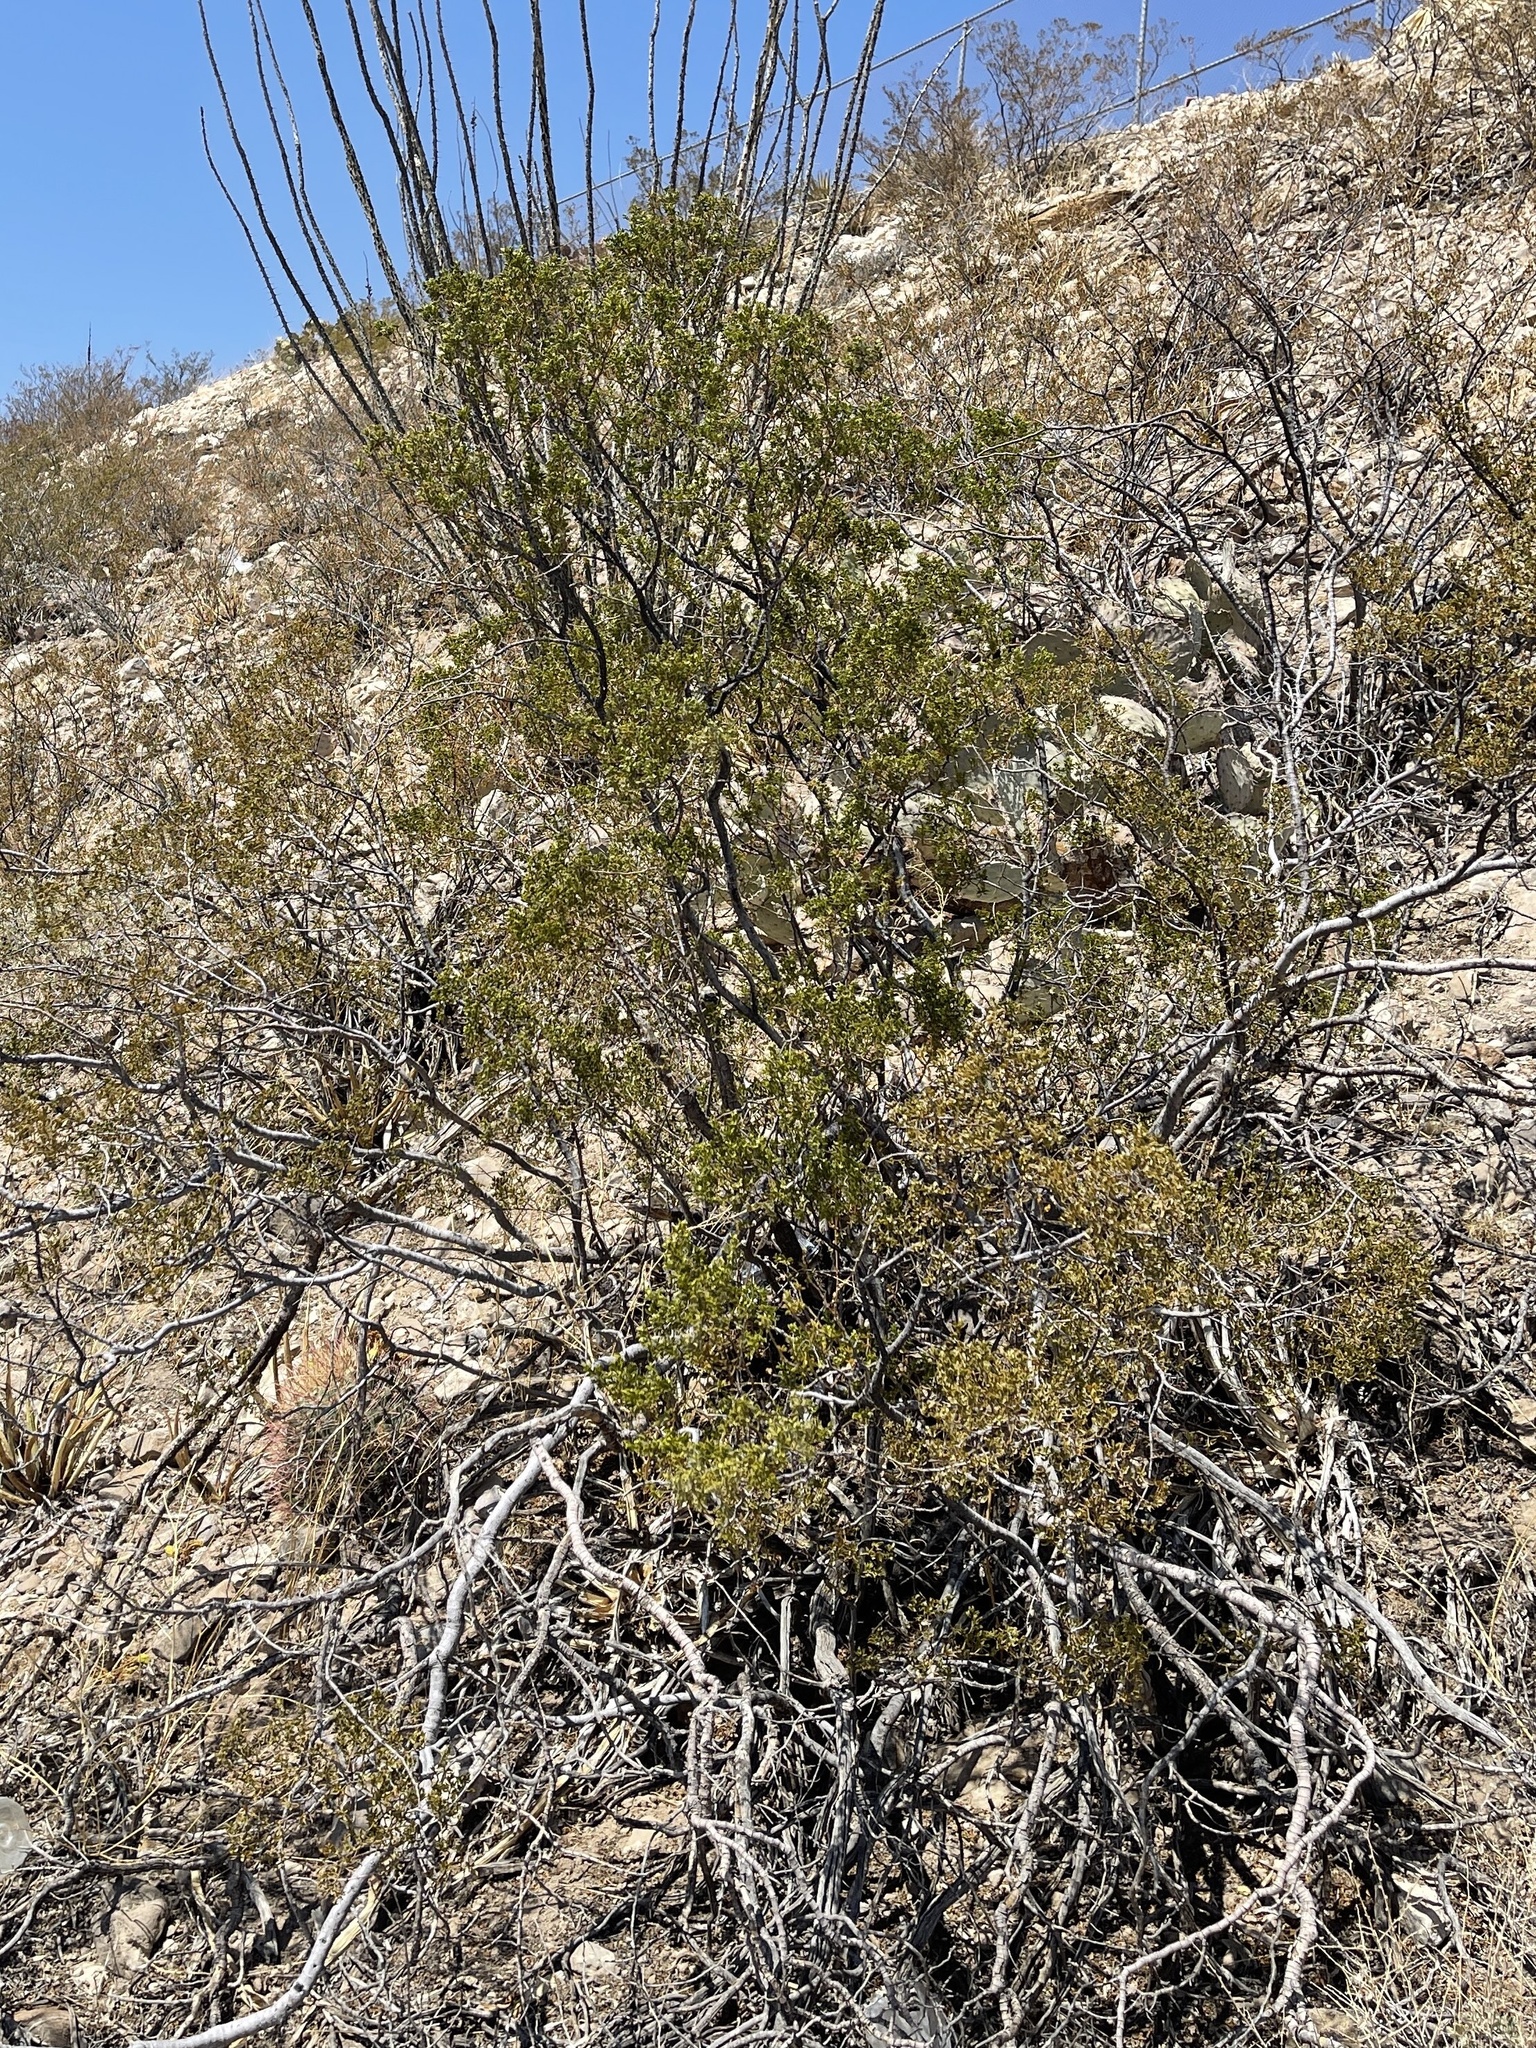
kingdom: Plantae
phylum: Tracheophyta
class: Magnoliopsida
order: Zygophyllales
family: Zygophyllaceae
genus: Larrea
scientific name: Larrea tridentata
